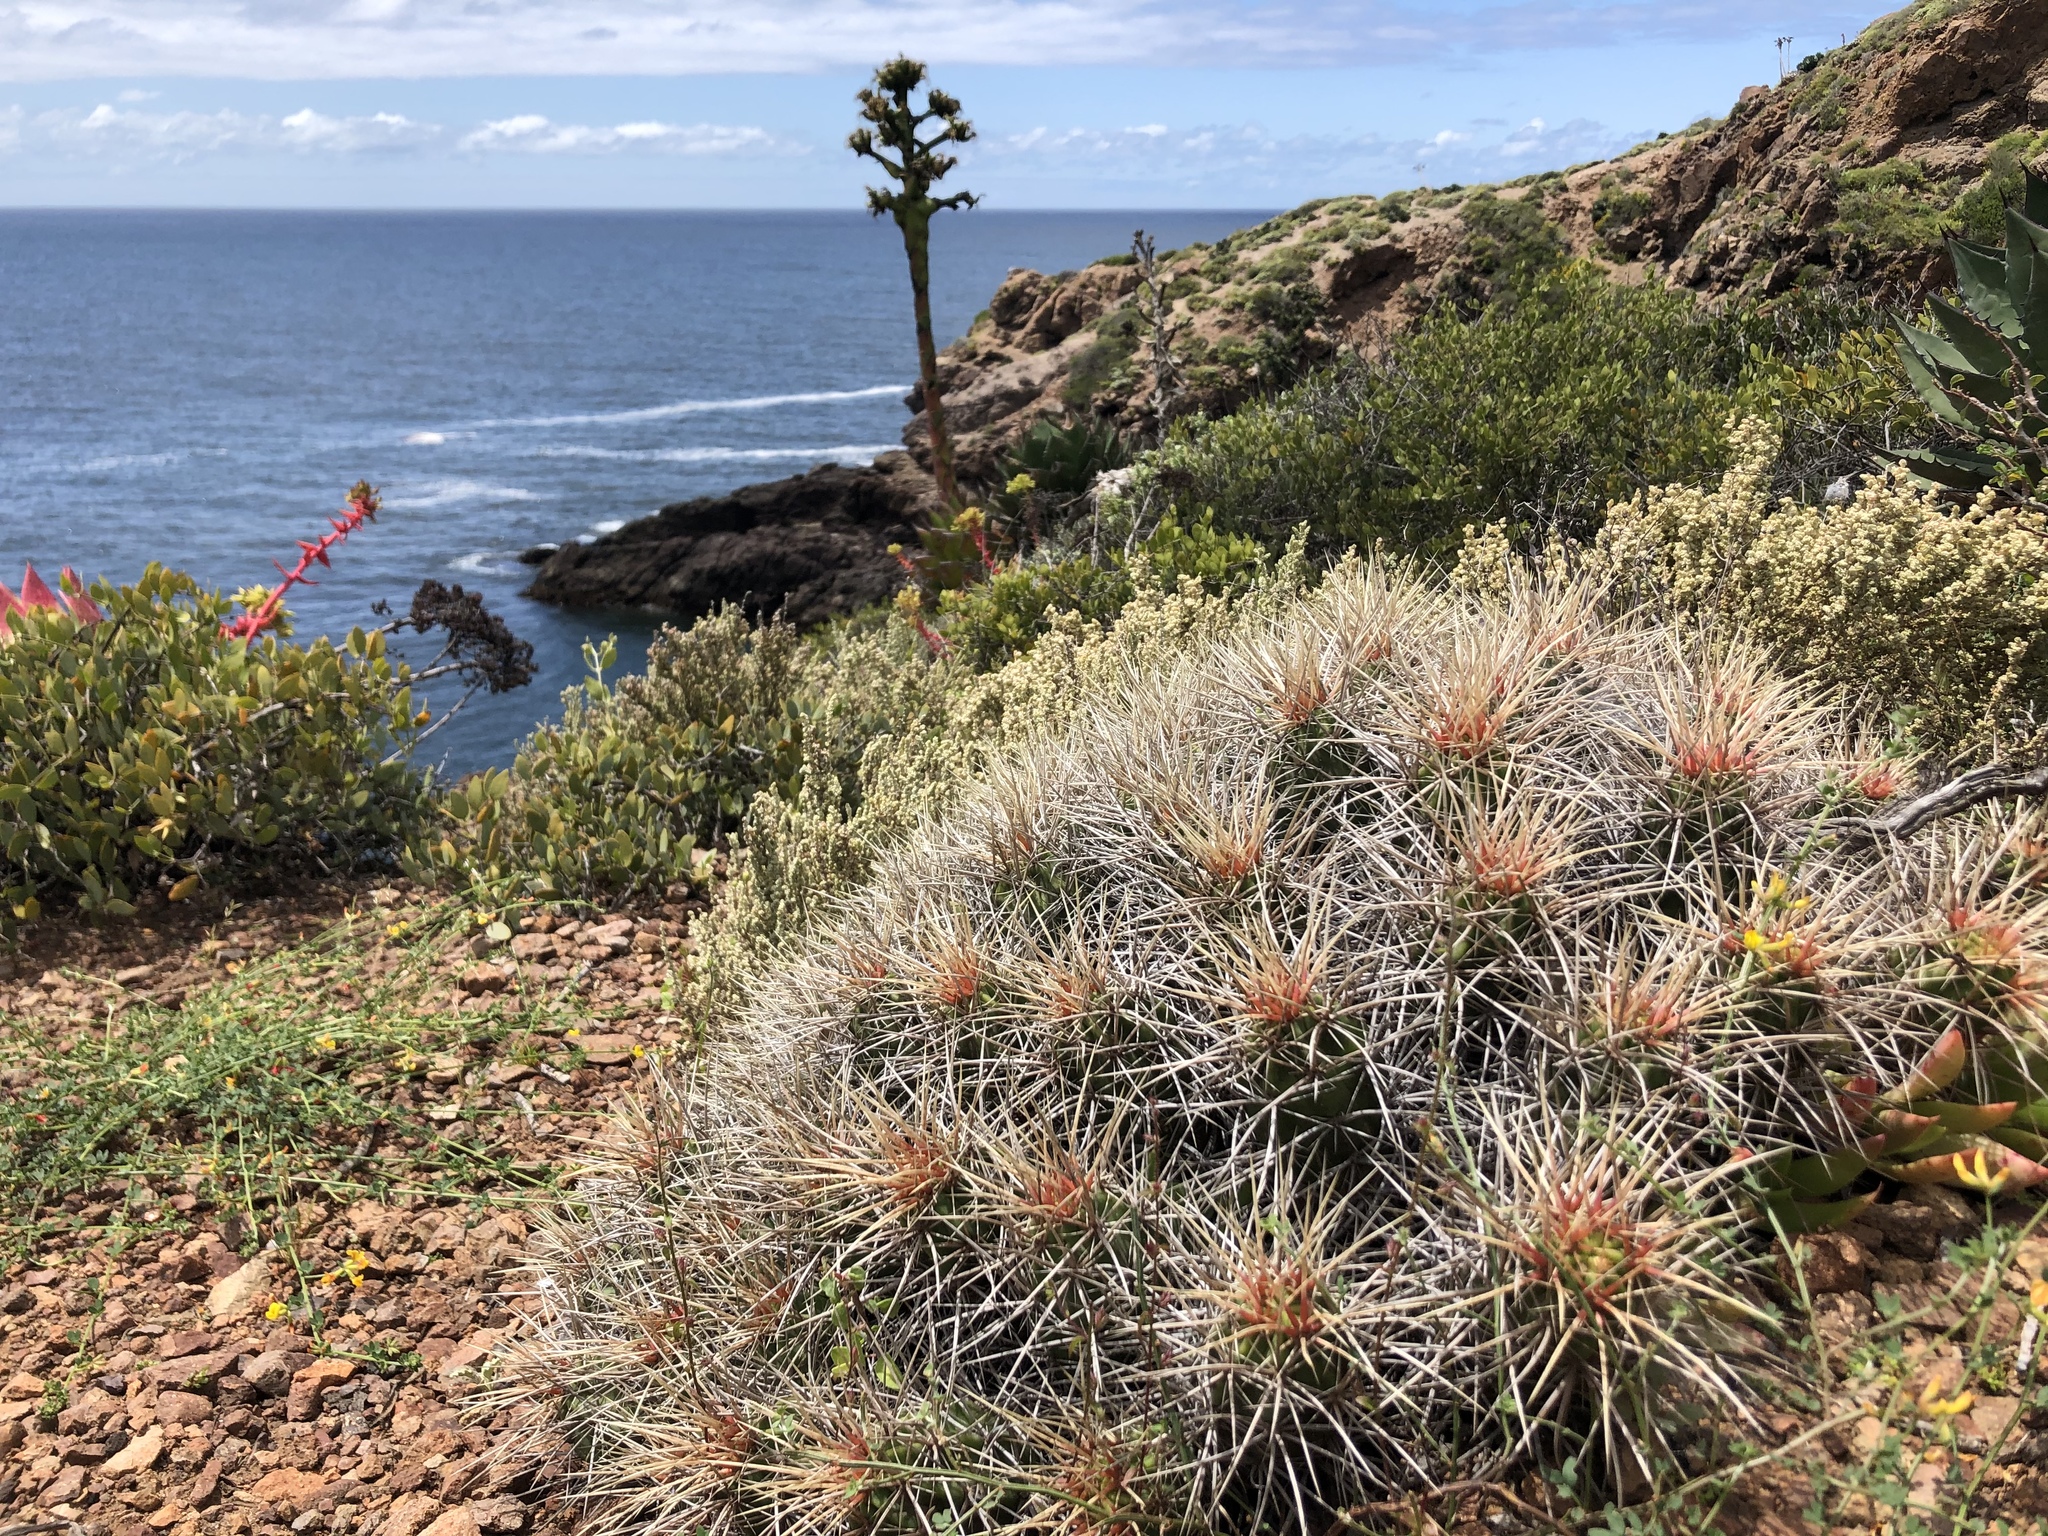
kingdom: Plantae
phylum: Tracheophyta
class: Magnoliopsida
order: Caryophyllales
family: Cactaceae
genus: Echinocereus
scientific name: Echinocereus maritimus
